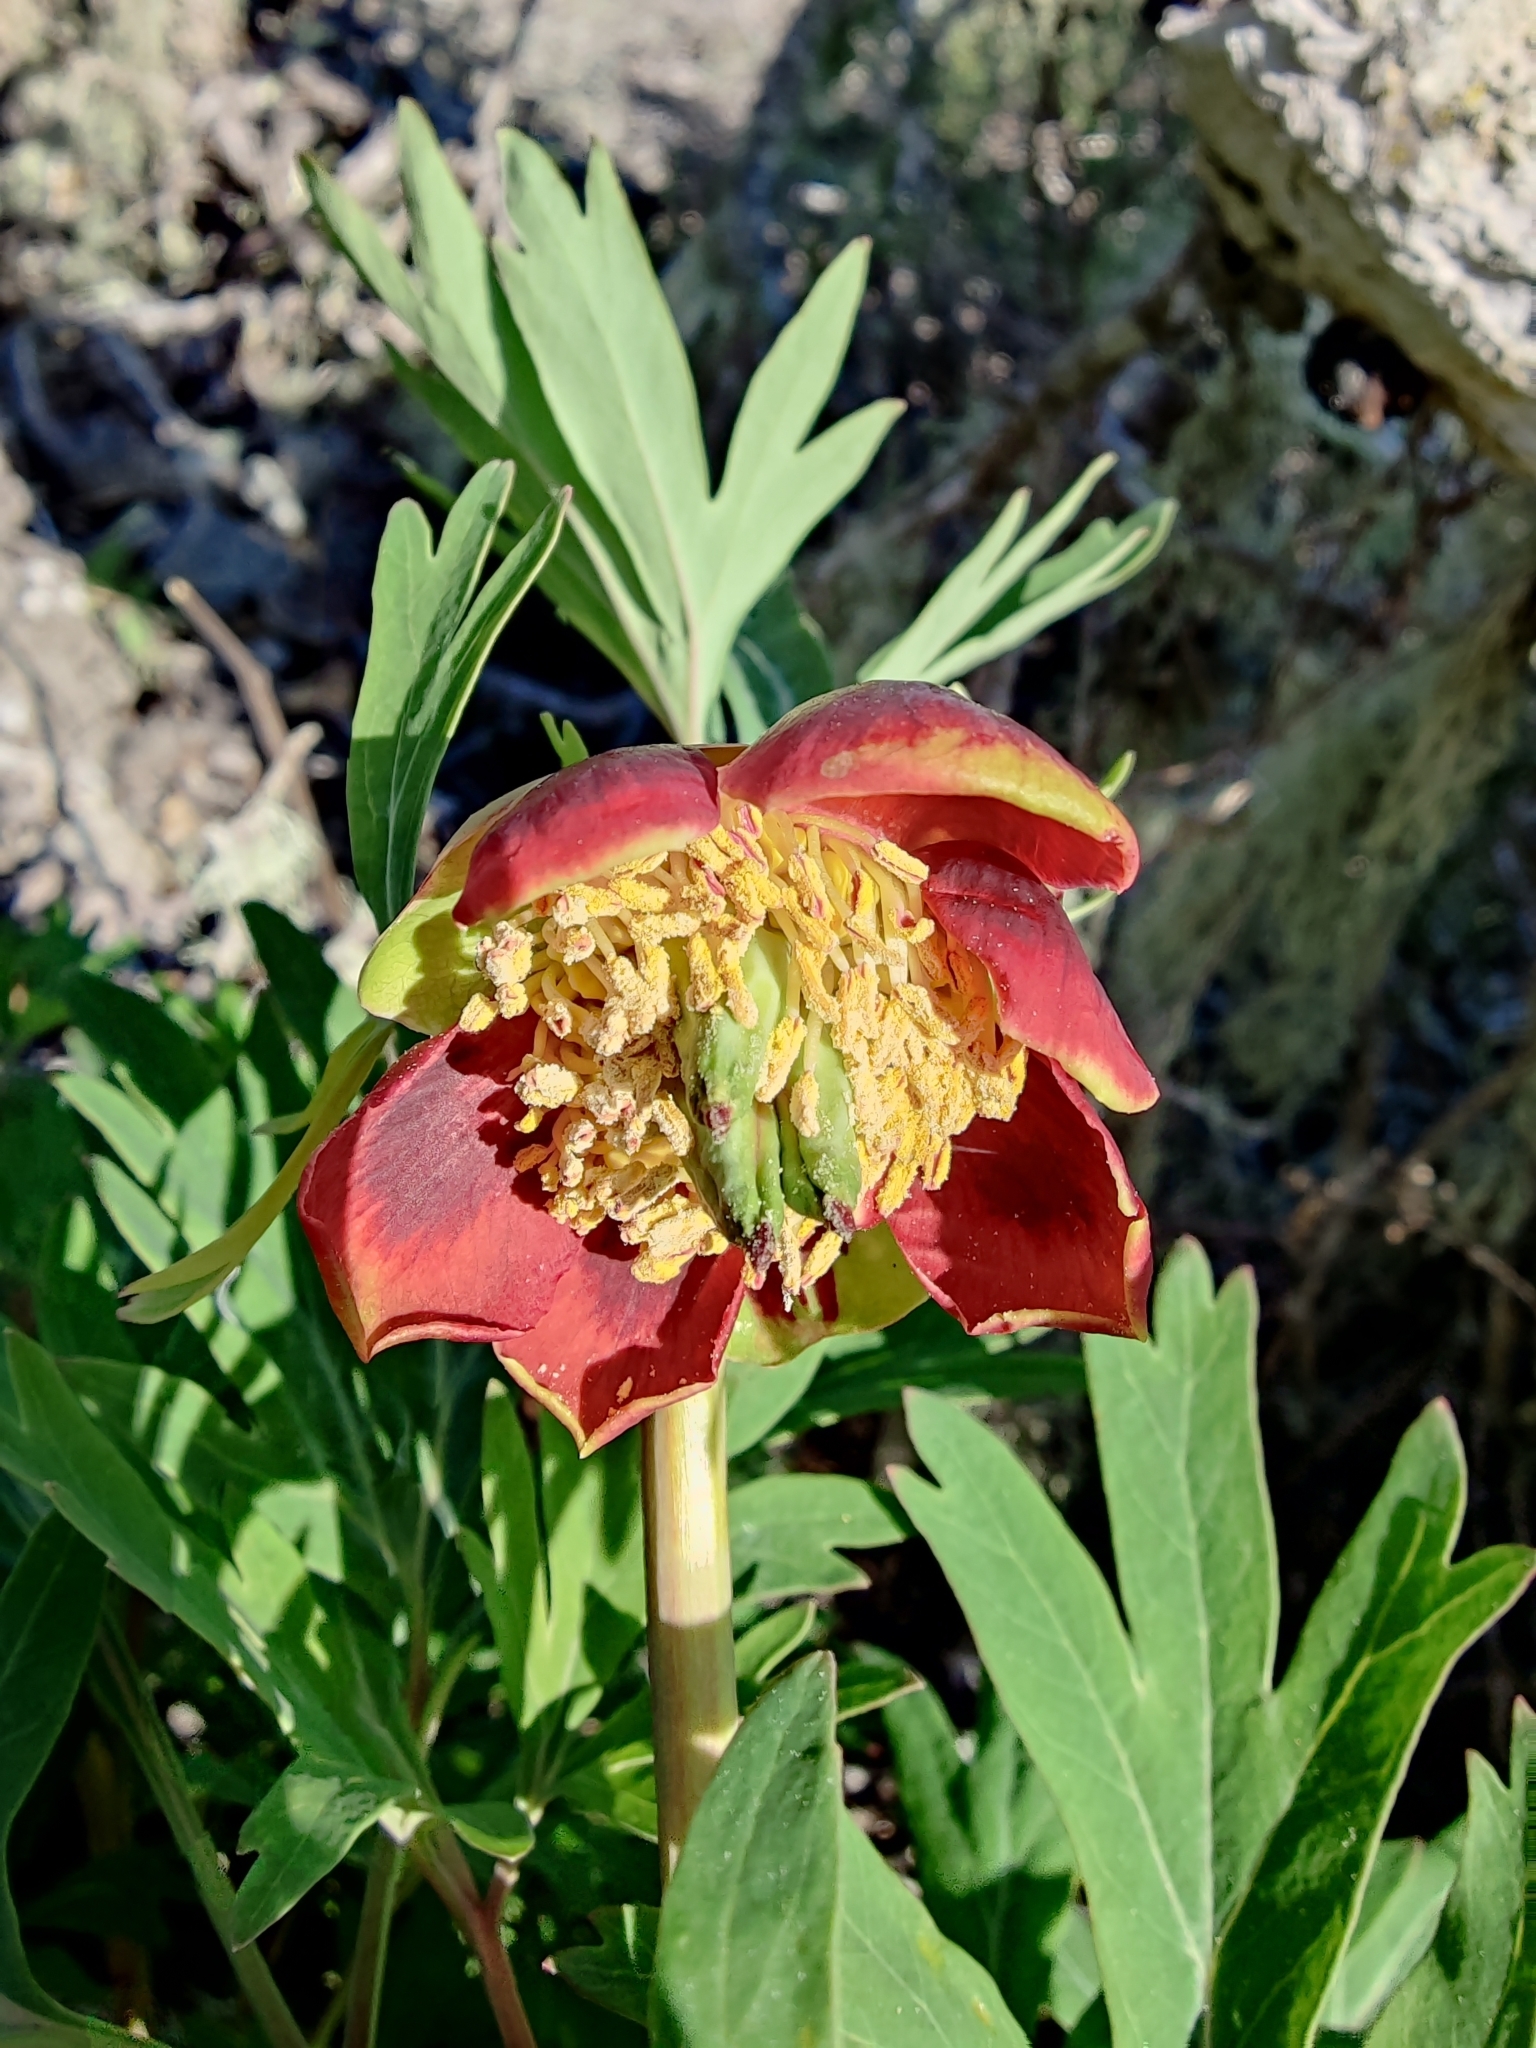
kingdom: Plantae
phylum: Tracheophyta
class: Magnoliopsida
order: Saxifragales
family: Paeoniaceae
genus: Paeonia
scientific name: Paeonia californica
